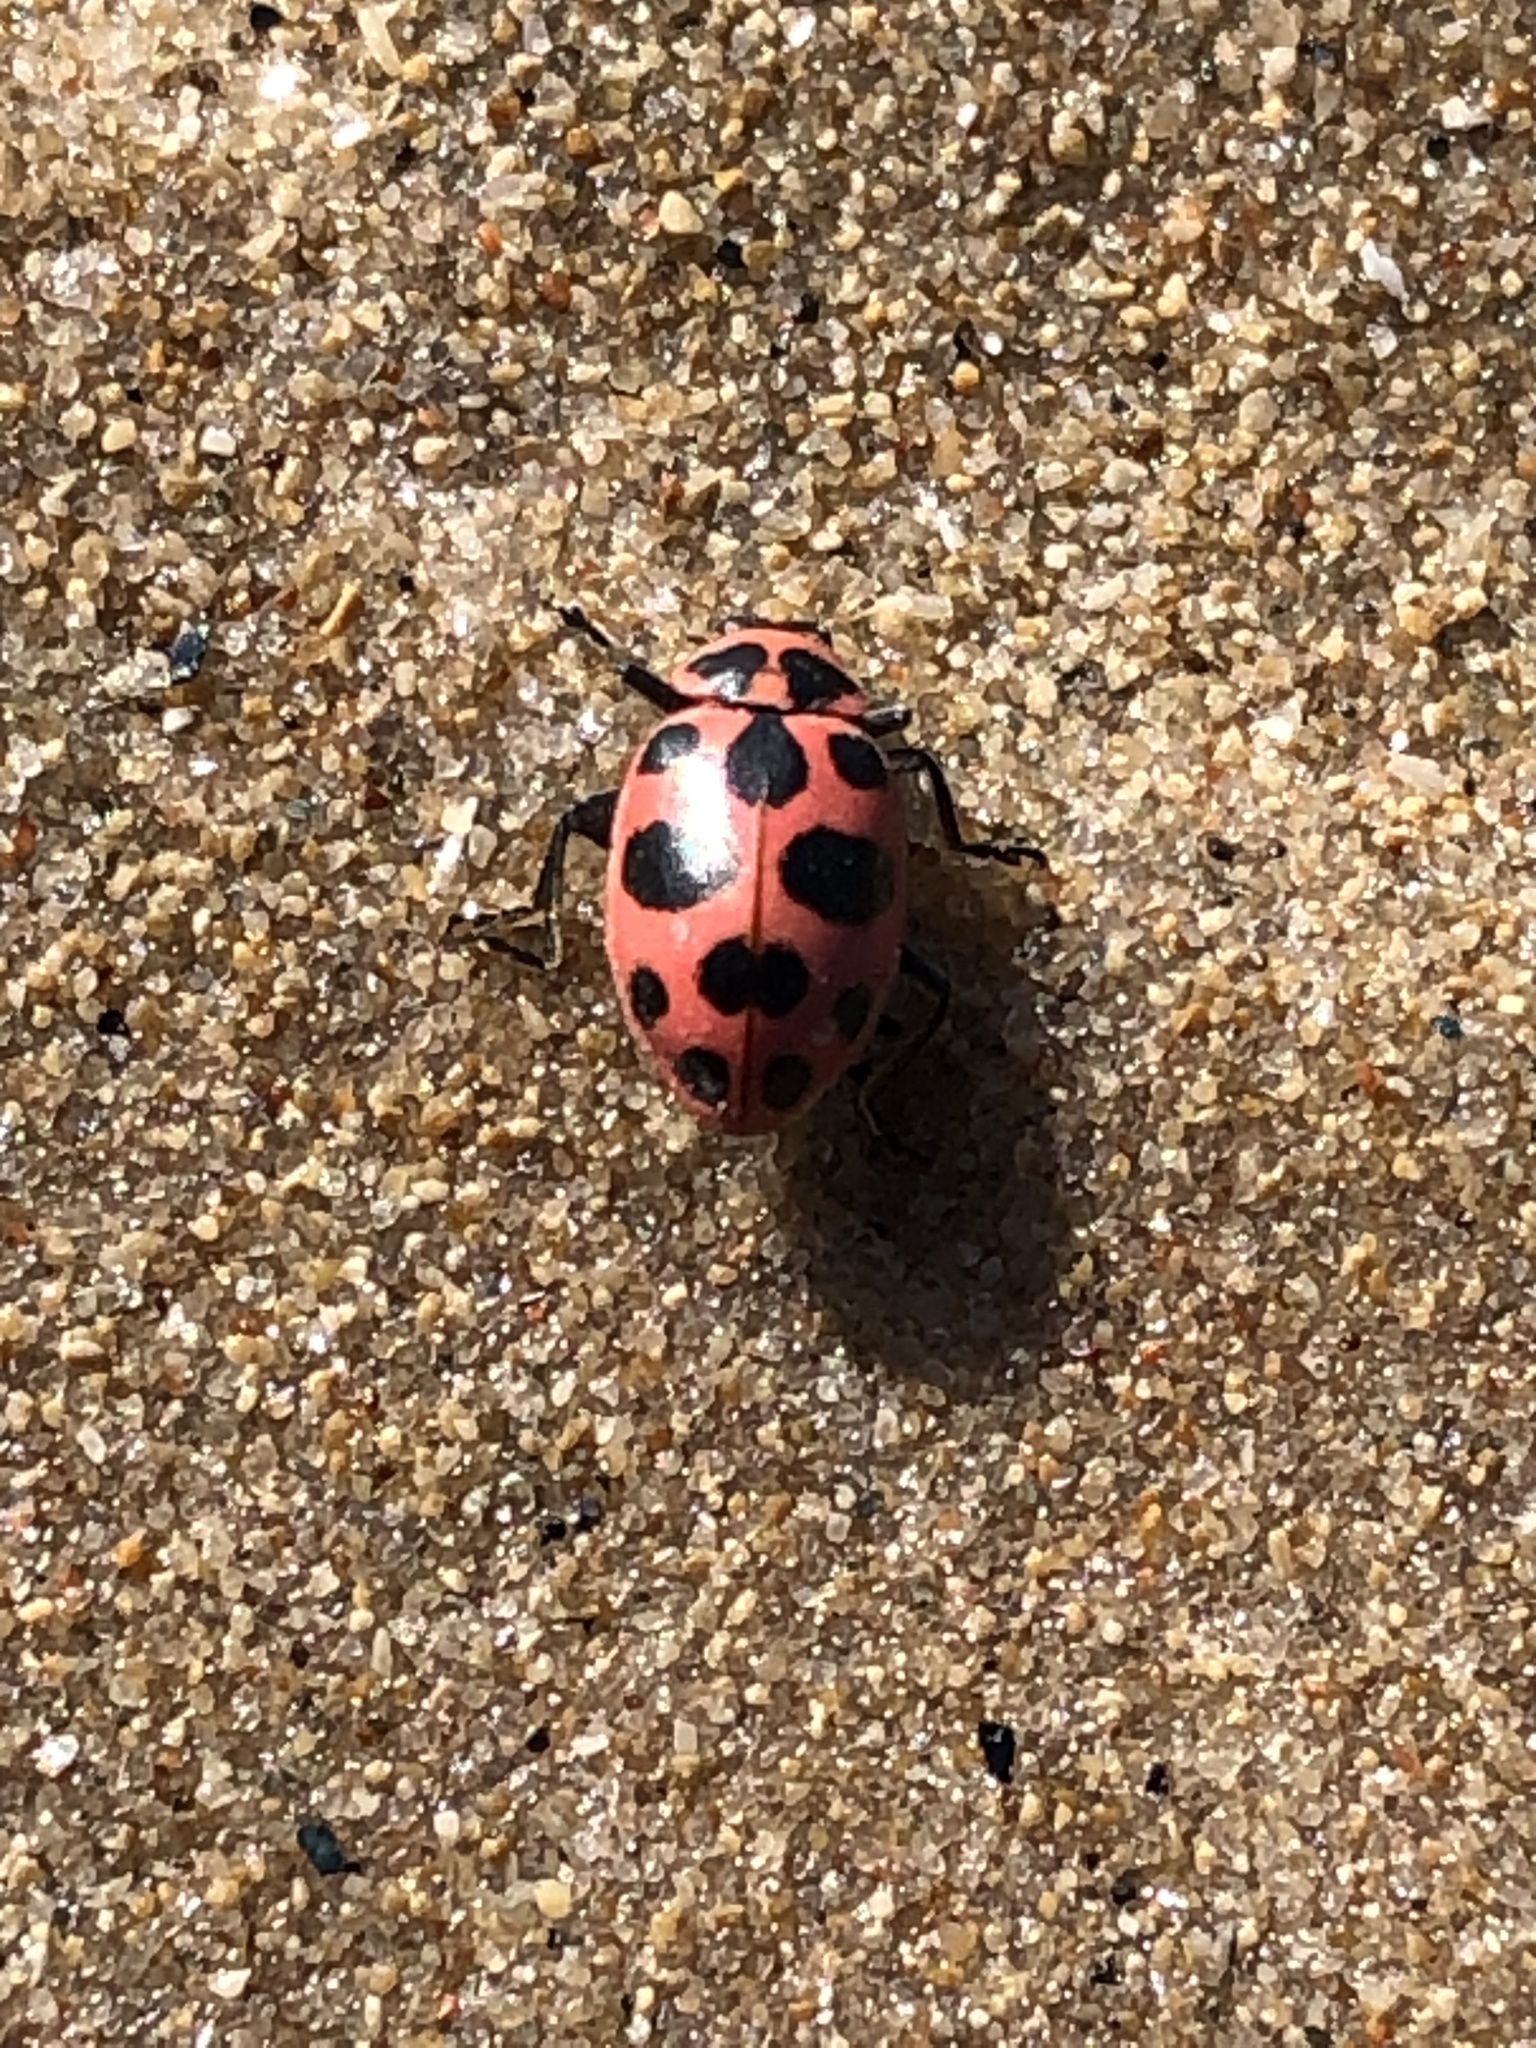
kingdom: Animalia
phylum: Arthropoda
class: Insecta
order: Coleoptera
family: Coccinellidae
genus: Coleomegilla
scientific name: Coleomegilla maculata
